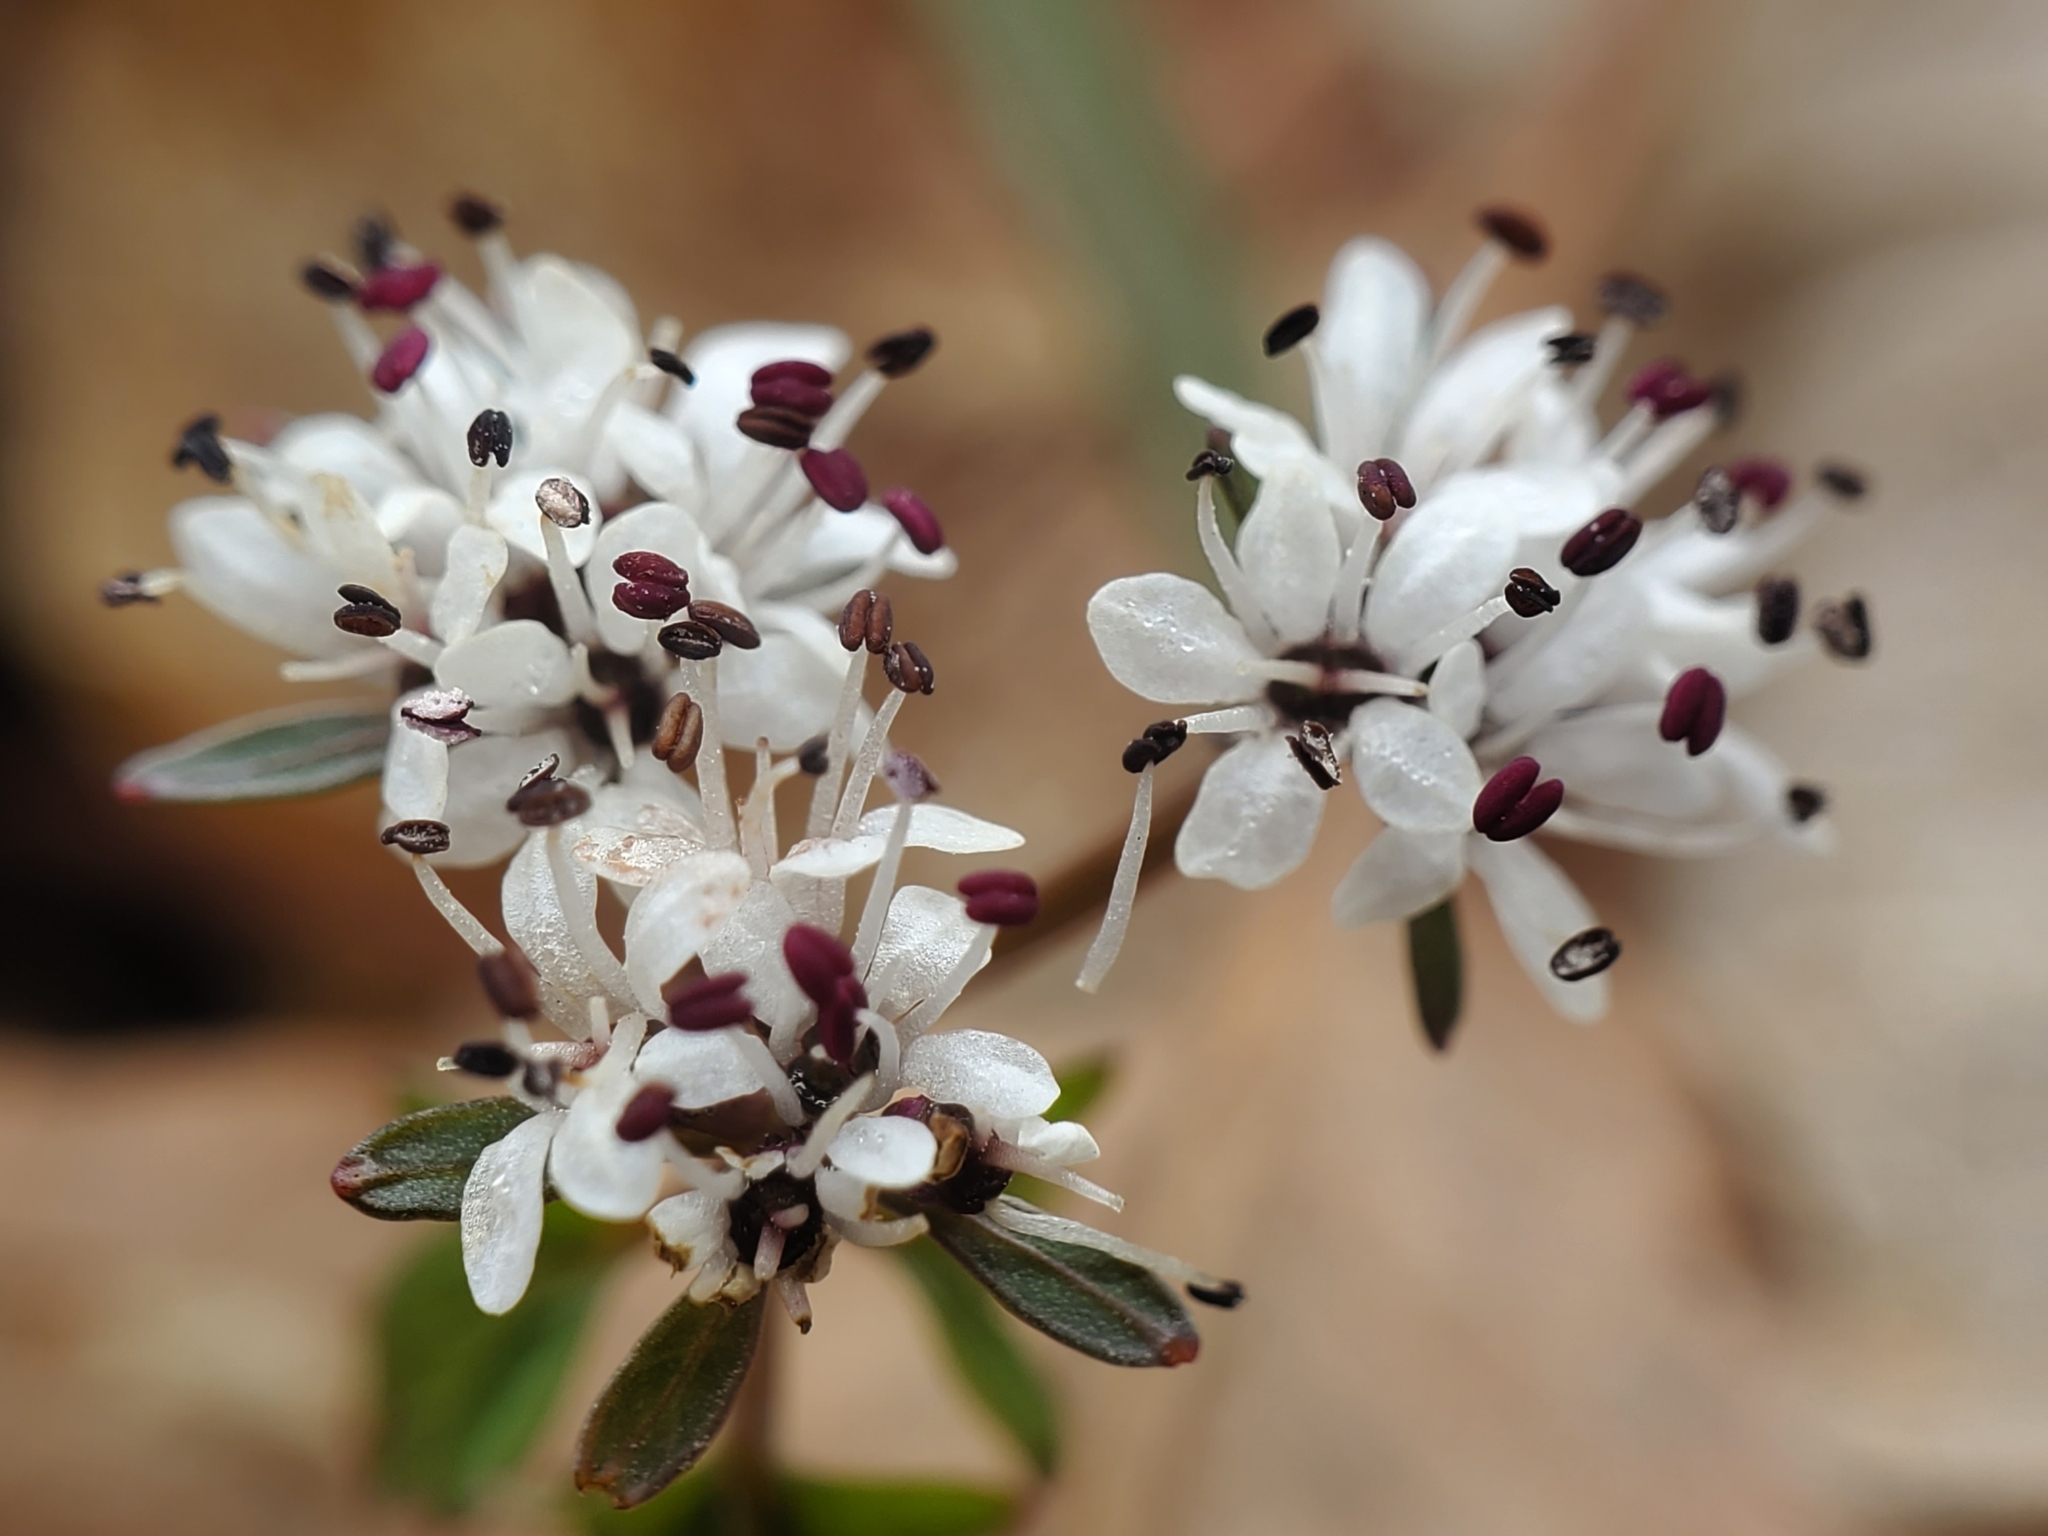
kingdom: Plantae
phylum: Tracheophyta
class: Magnoliopsida
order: Apiales
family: Apiaceae
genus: Erigenia
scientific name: Erigenia bulbosa
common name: Pepper-and-salt
